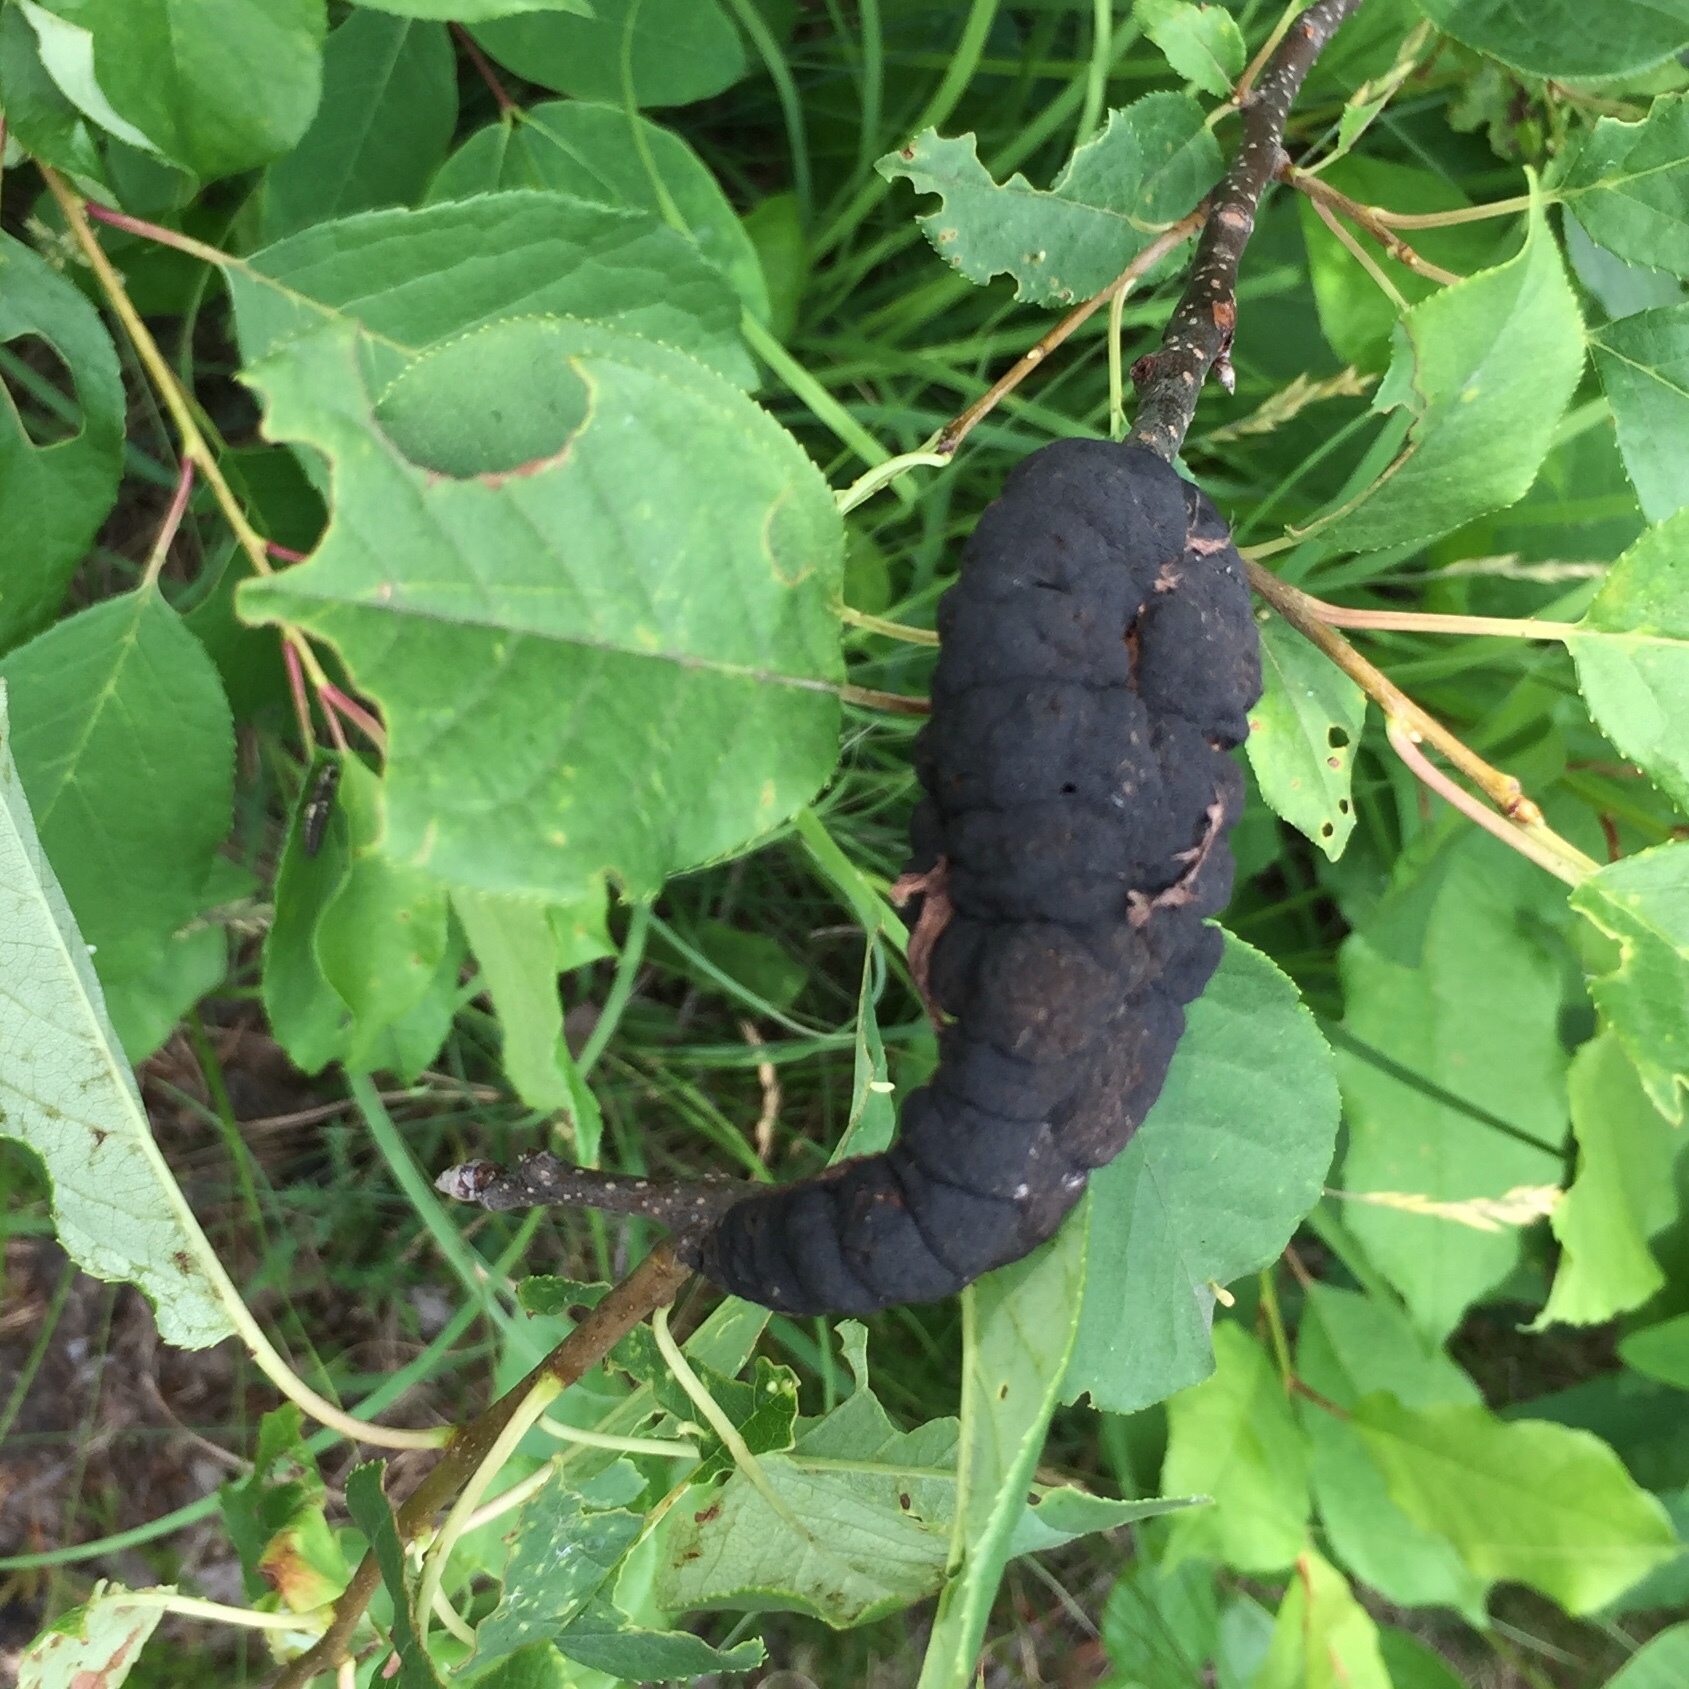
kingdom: Fungi
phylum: Ascomycota
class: Dothideomycetes
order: Venturiales
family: Venturiaceae
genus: Apiosporina
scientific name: Apiosporina morbosa
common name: Black knot
